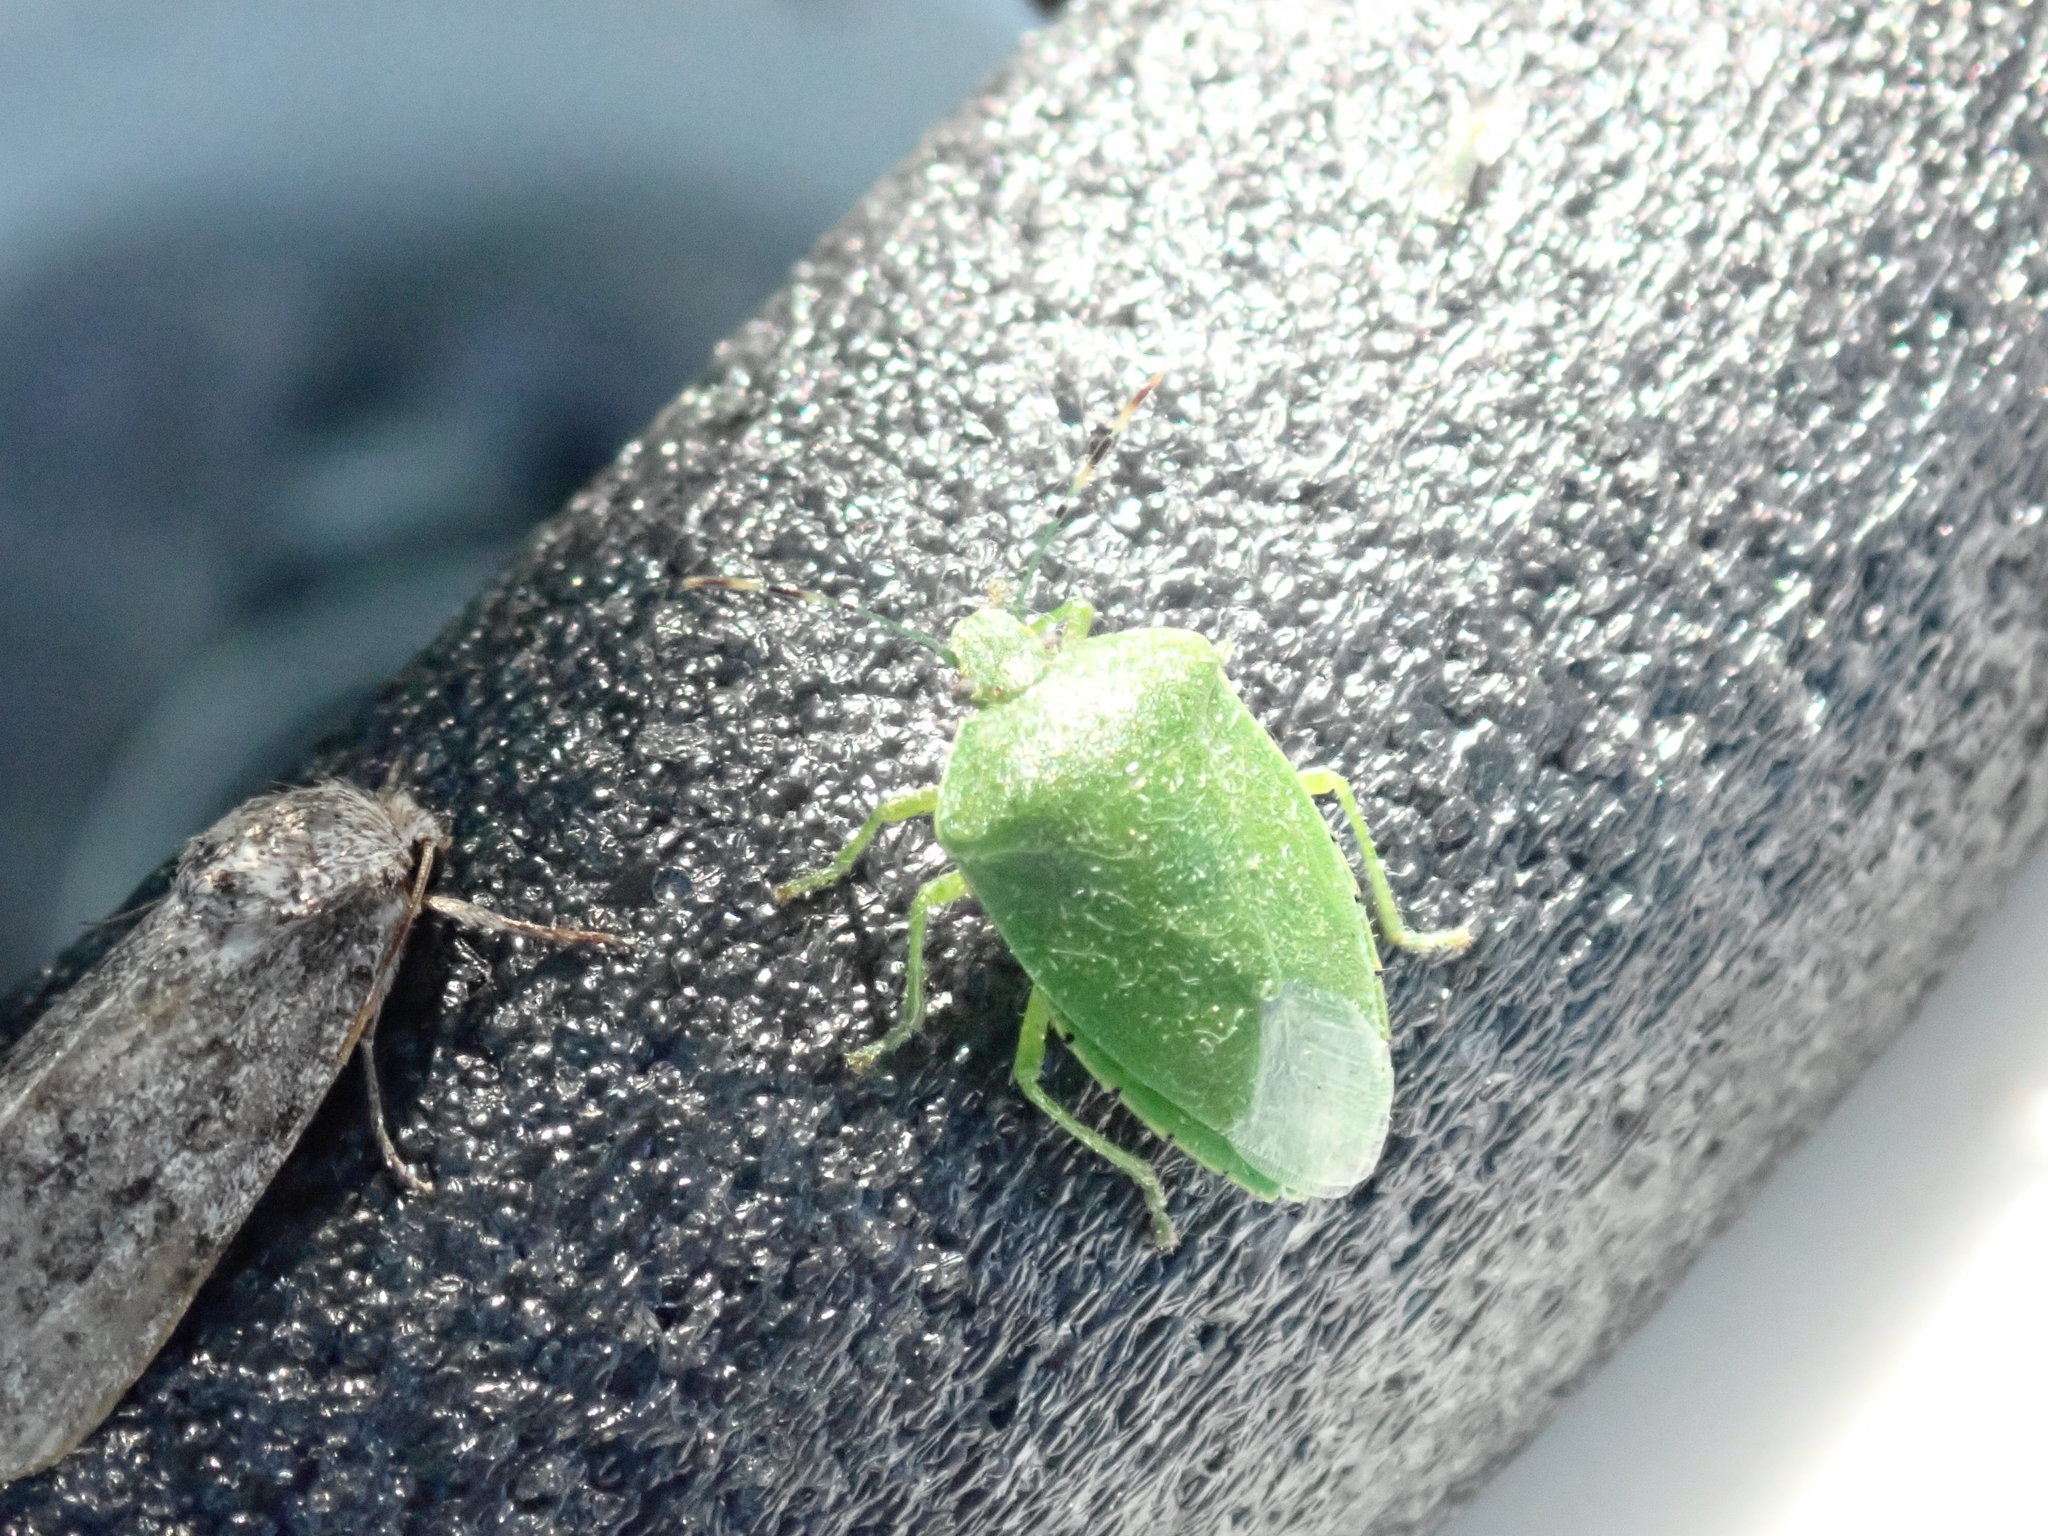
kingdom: Animalia
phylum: Arthropoda
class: Insecta
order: Hemiptera
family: Pentatomidae
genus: Chinavia
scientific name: Chinavia hilaris
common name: Green stink bug
